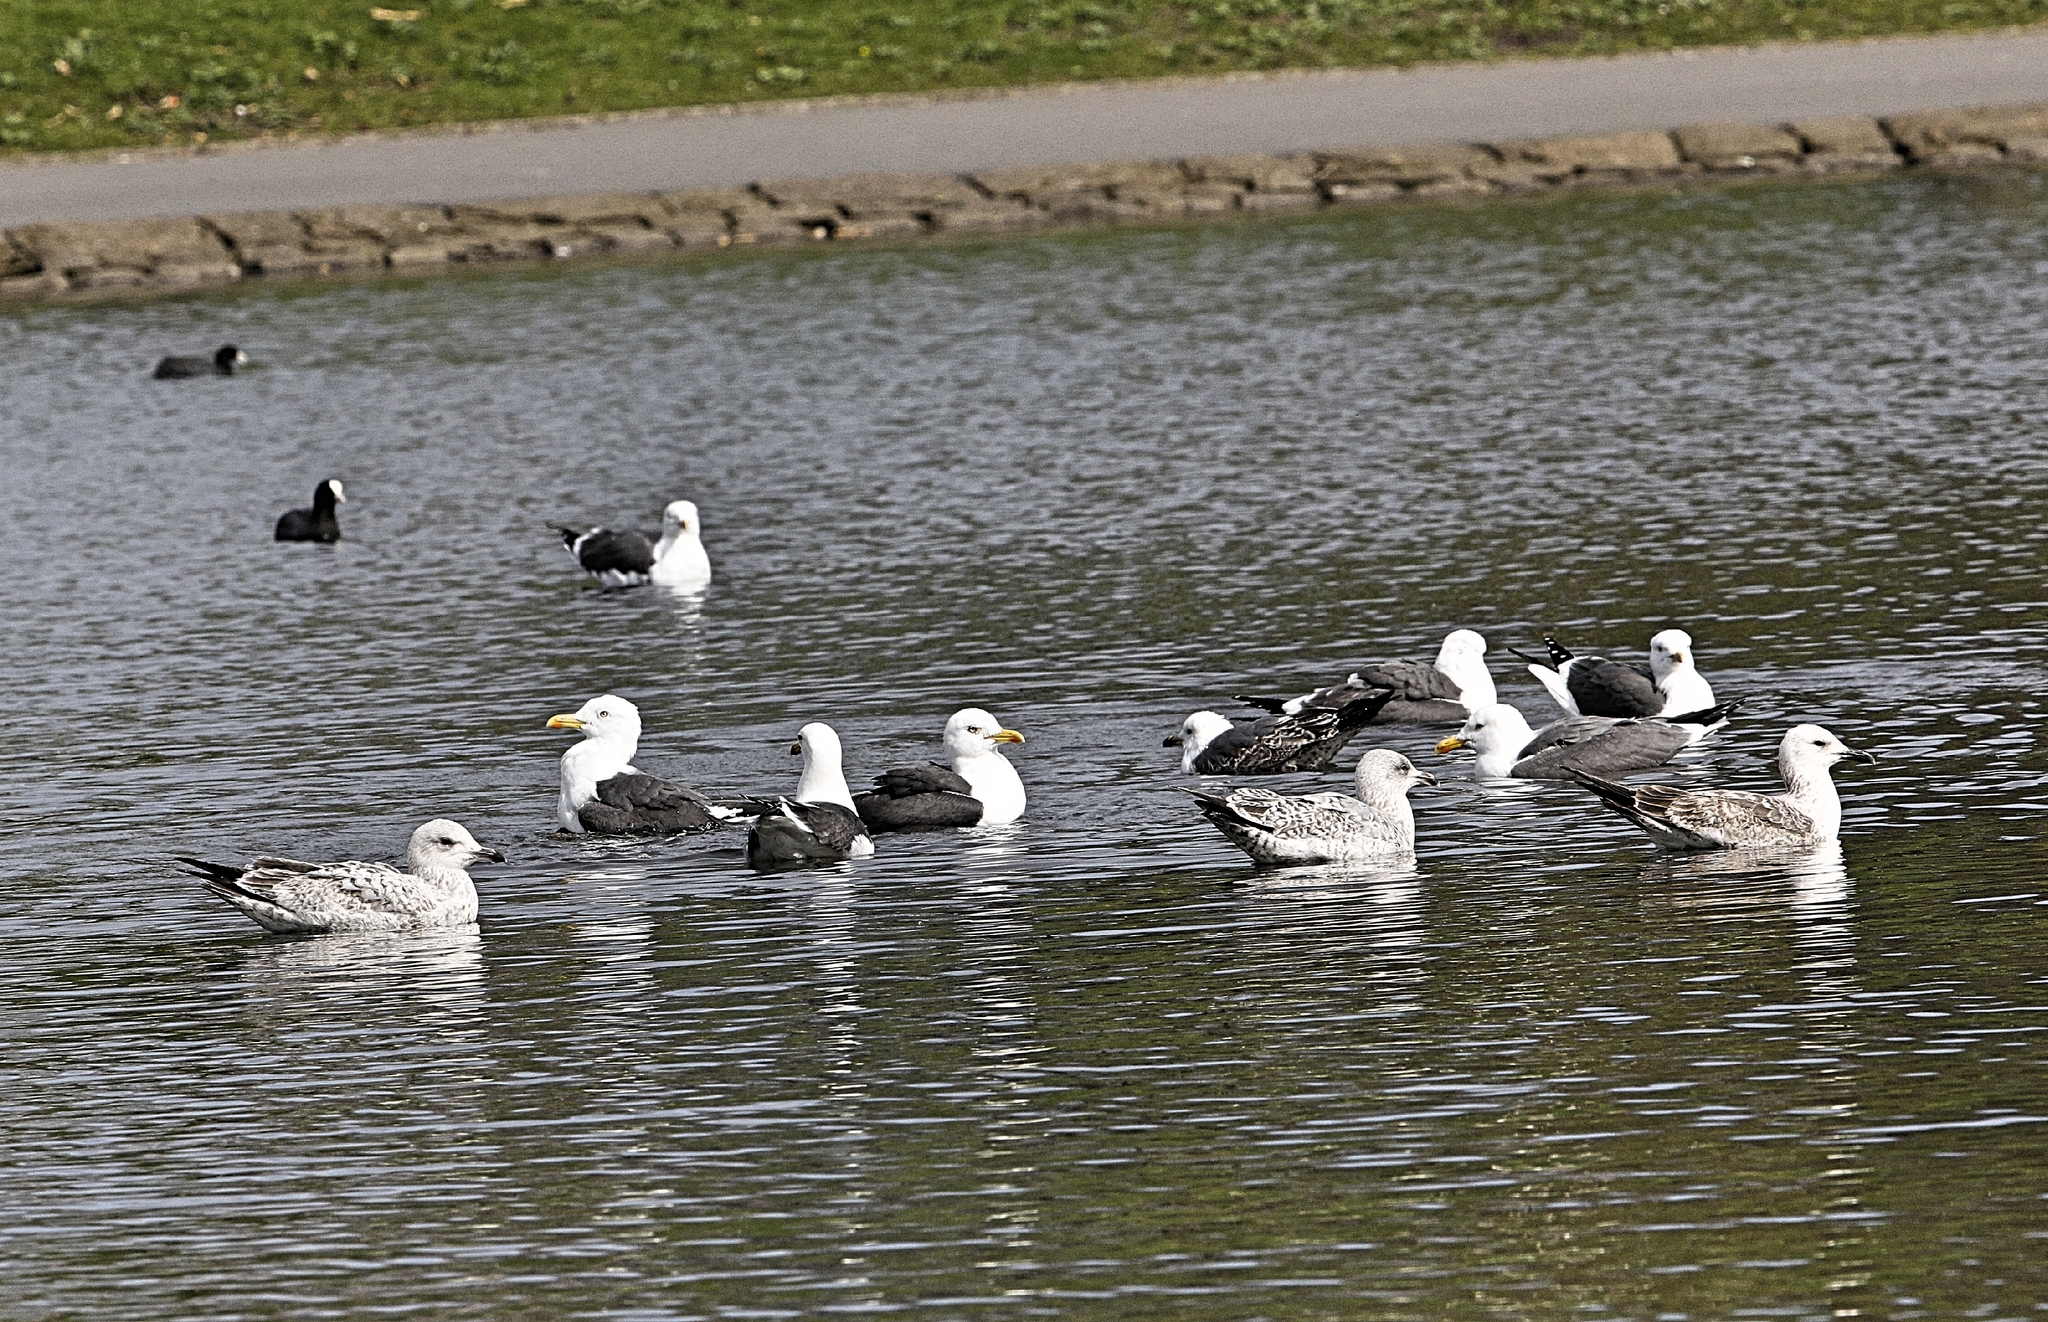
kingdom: Animalia
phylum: Chordata
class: Aves
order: Charadriiformes
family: Laridae
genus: Larus
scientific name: Larus fuscus
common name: Lesser black-backed gull
